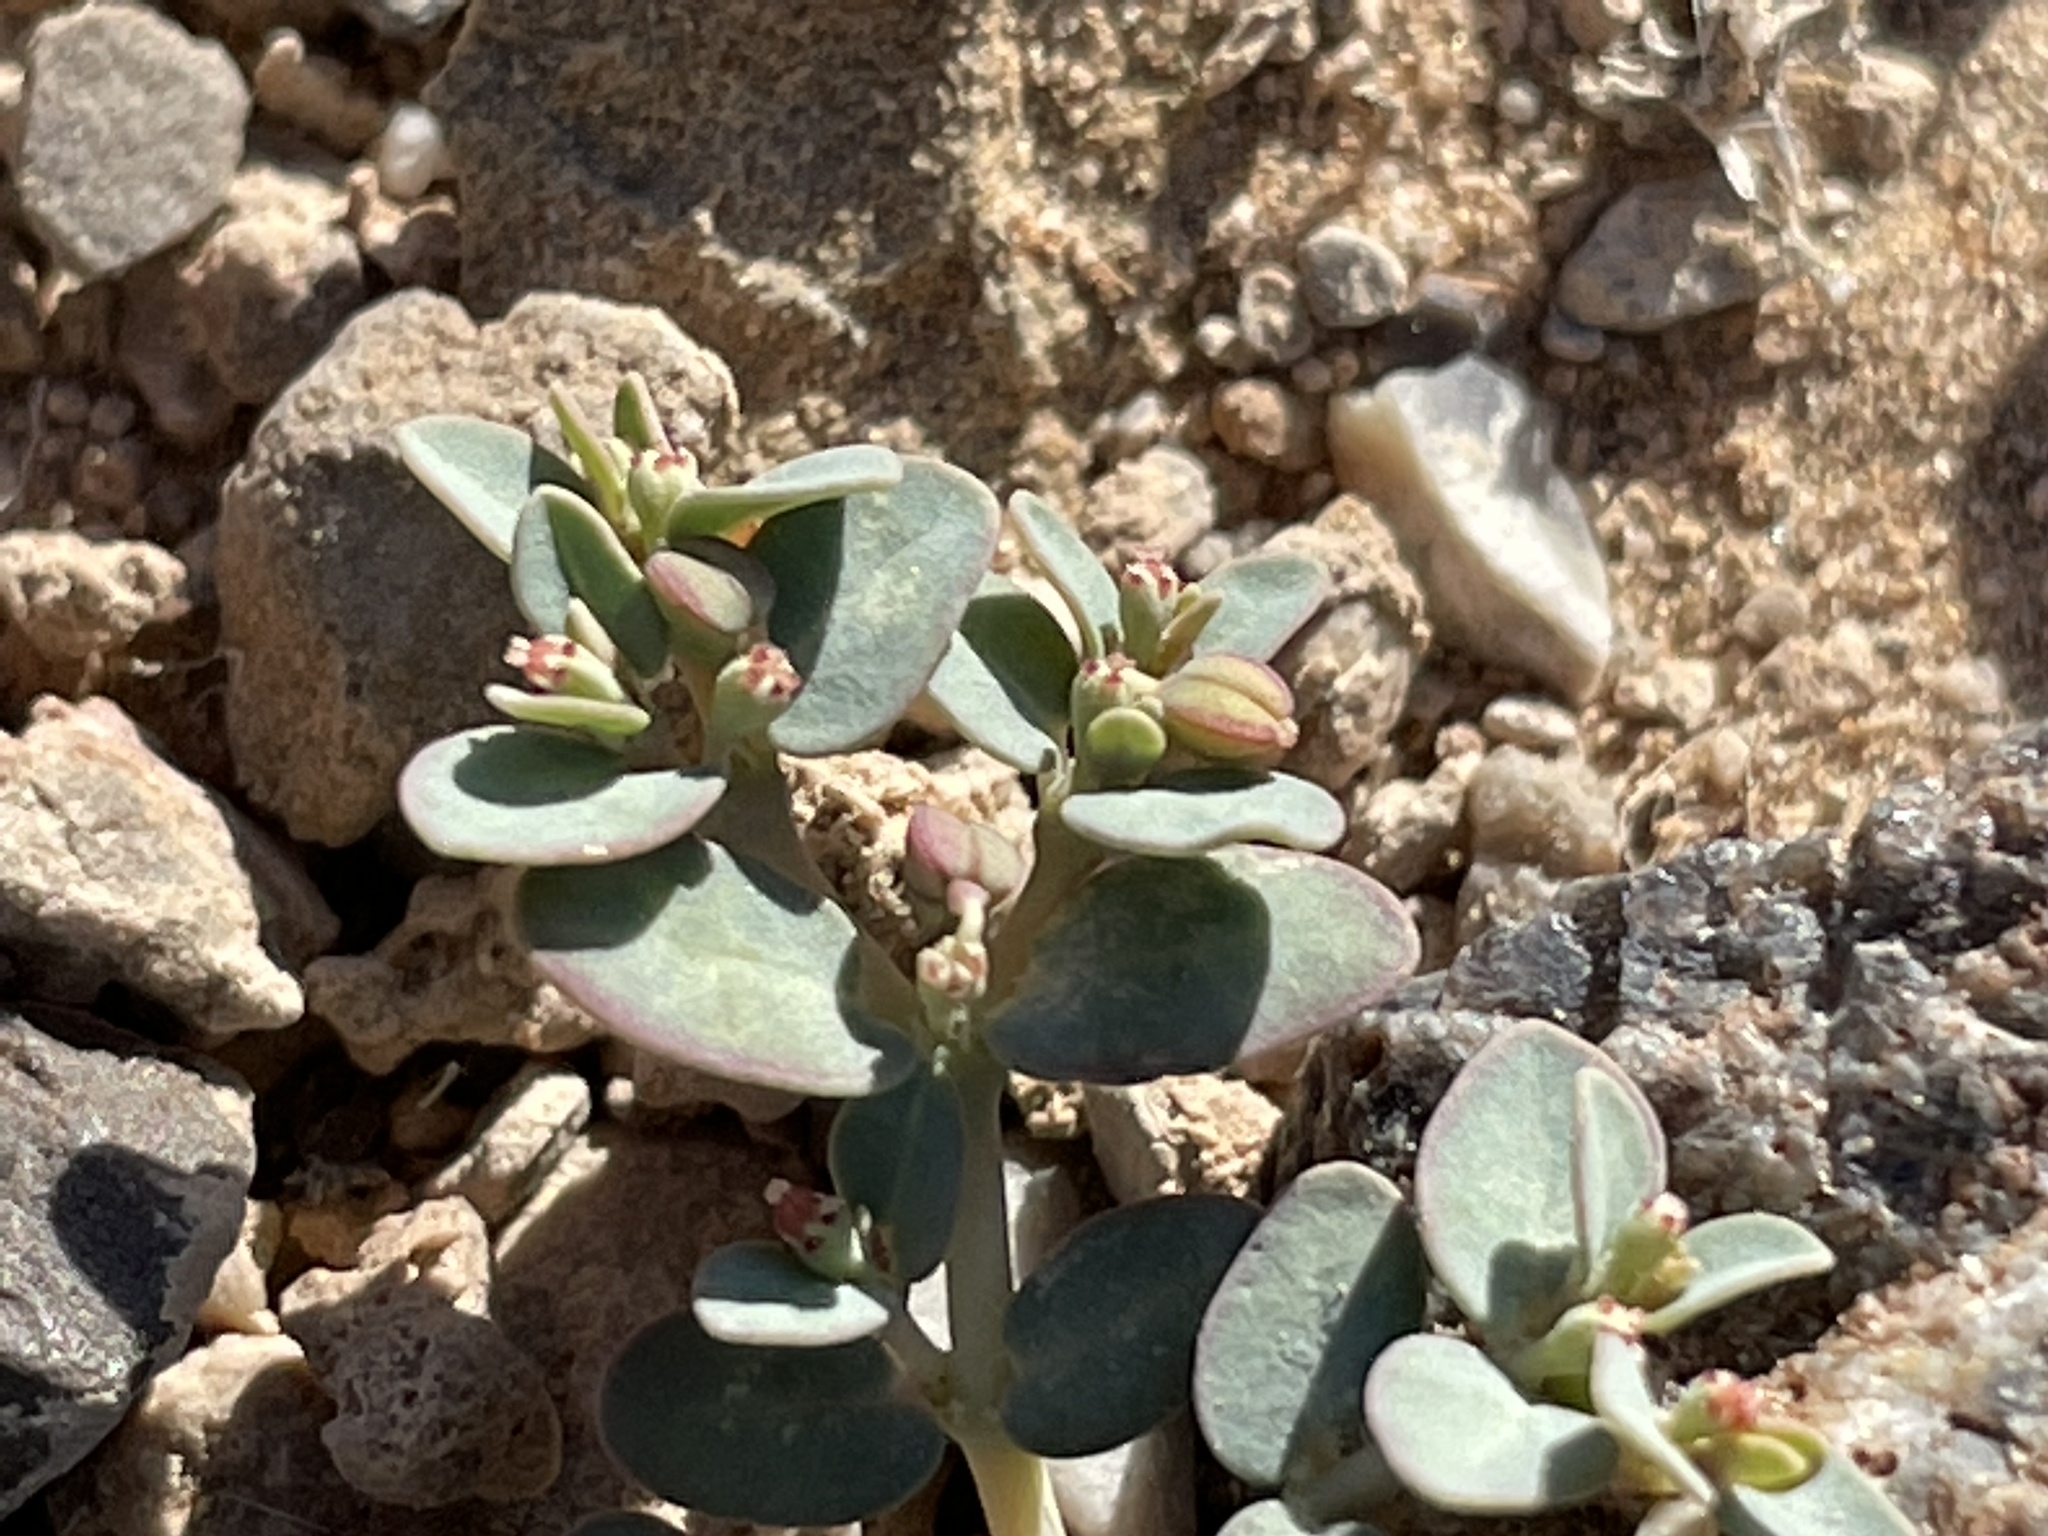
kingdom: Plantae
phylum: Tracheophyta
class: Magnoliopsida
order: Malpighiales
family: Euphorbiaceae
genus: Euphorbia
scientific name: Euphorbia micromera
